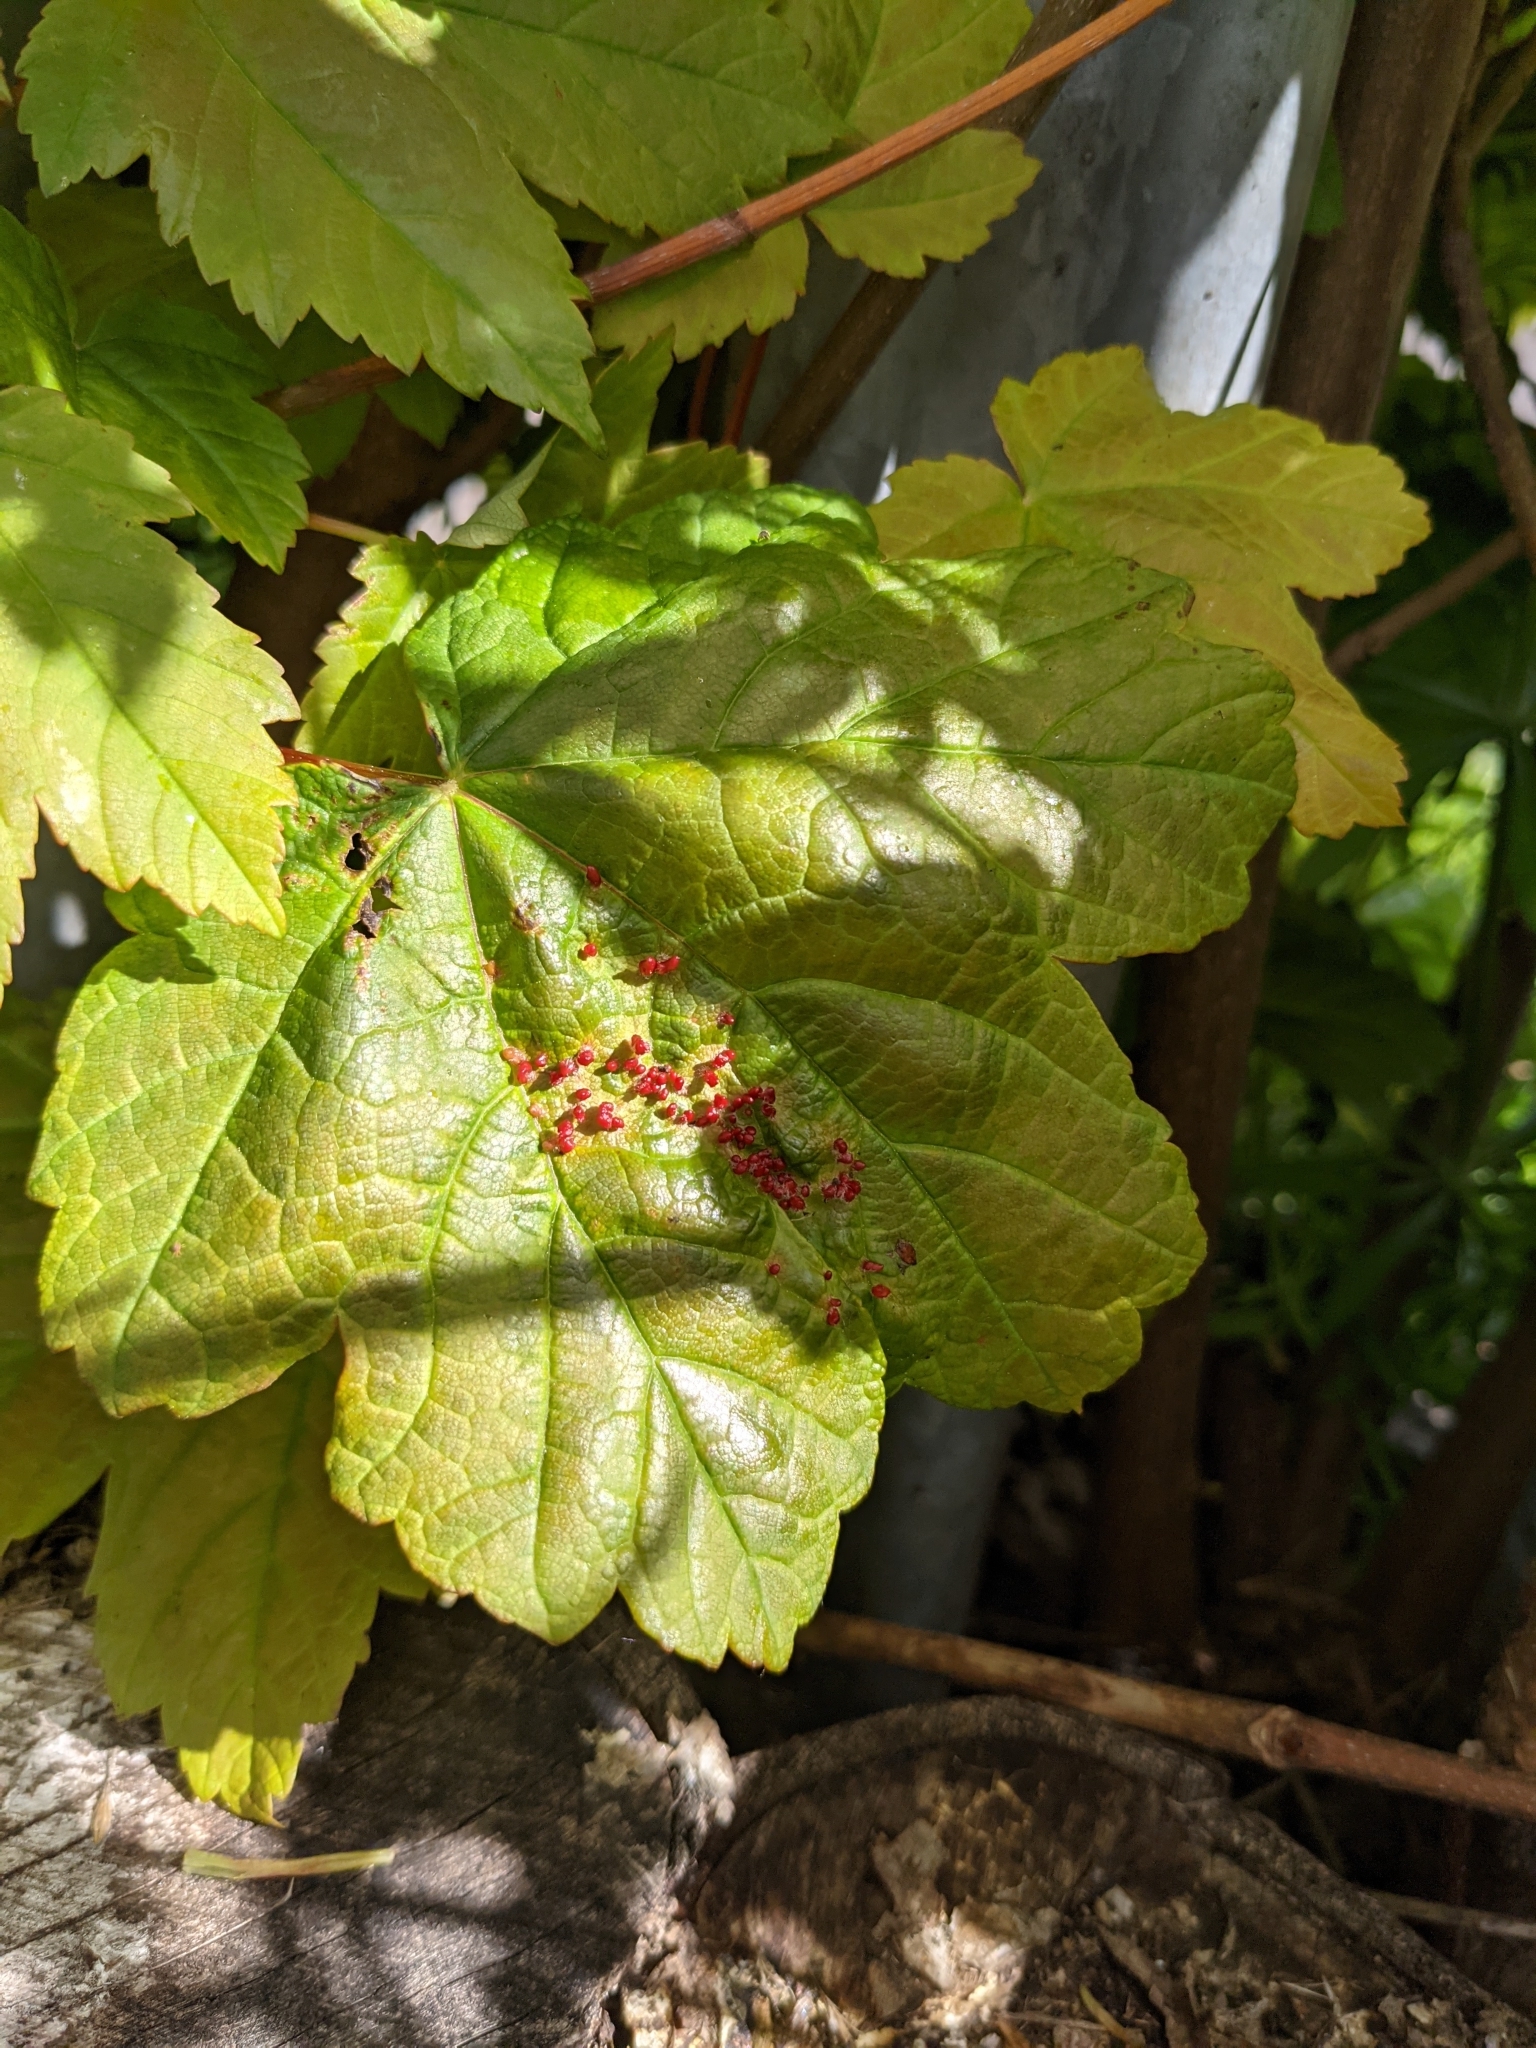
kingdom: Animalia
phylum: Arthropoda
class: Arachnida
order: Trombidiformes
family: Eriophyidae
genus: Aceria
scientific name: Aceria cephaloneus
